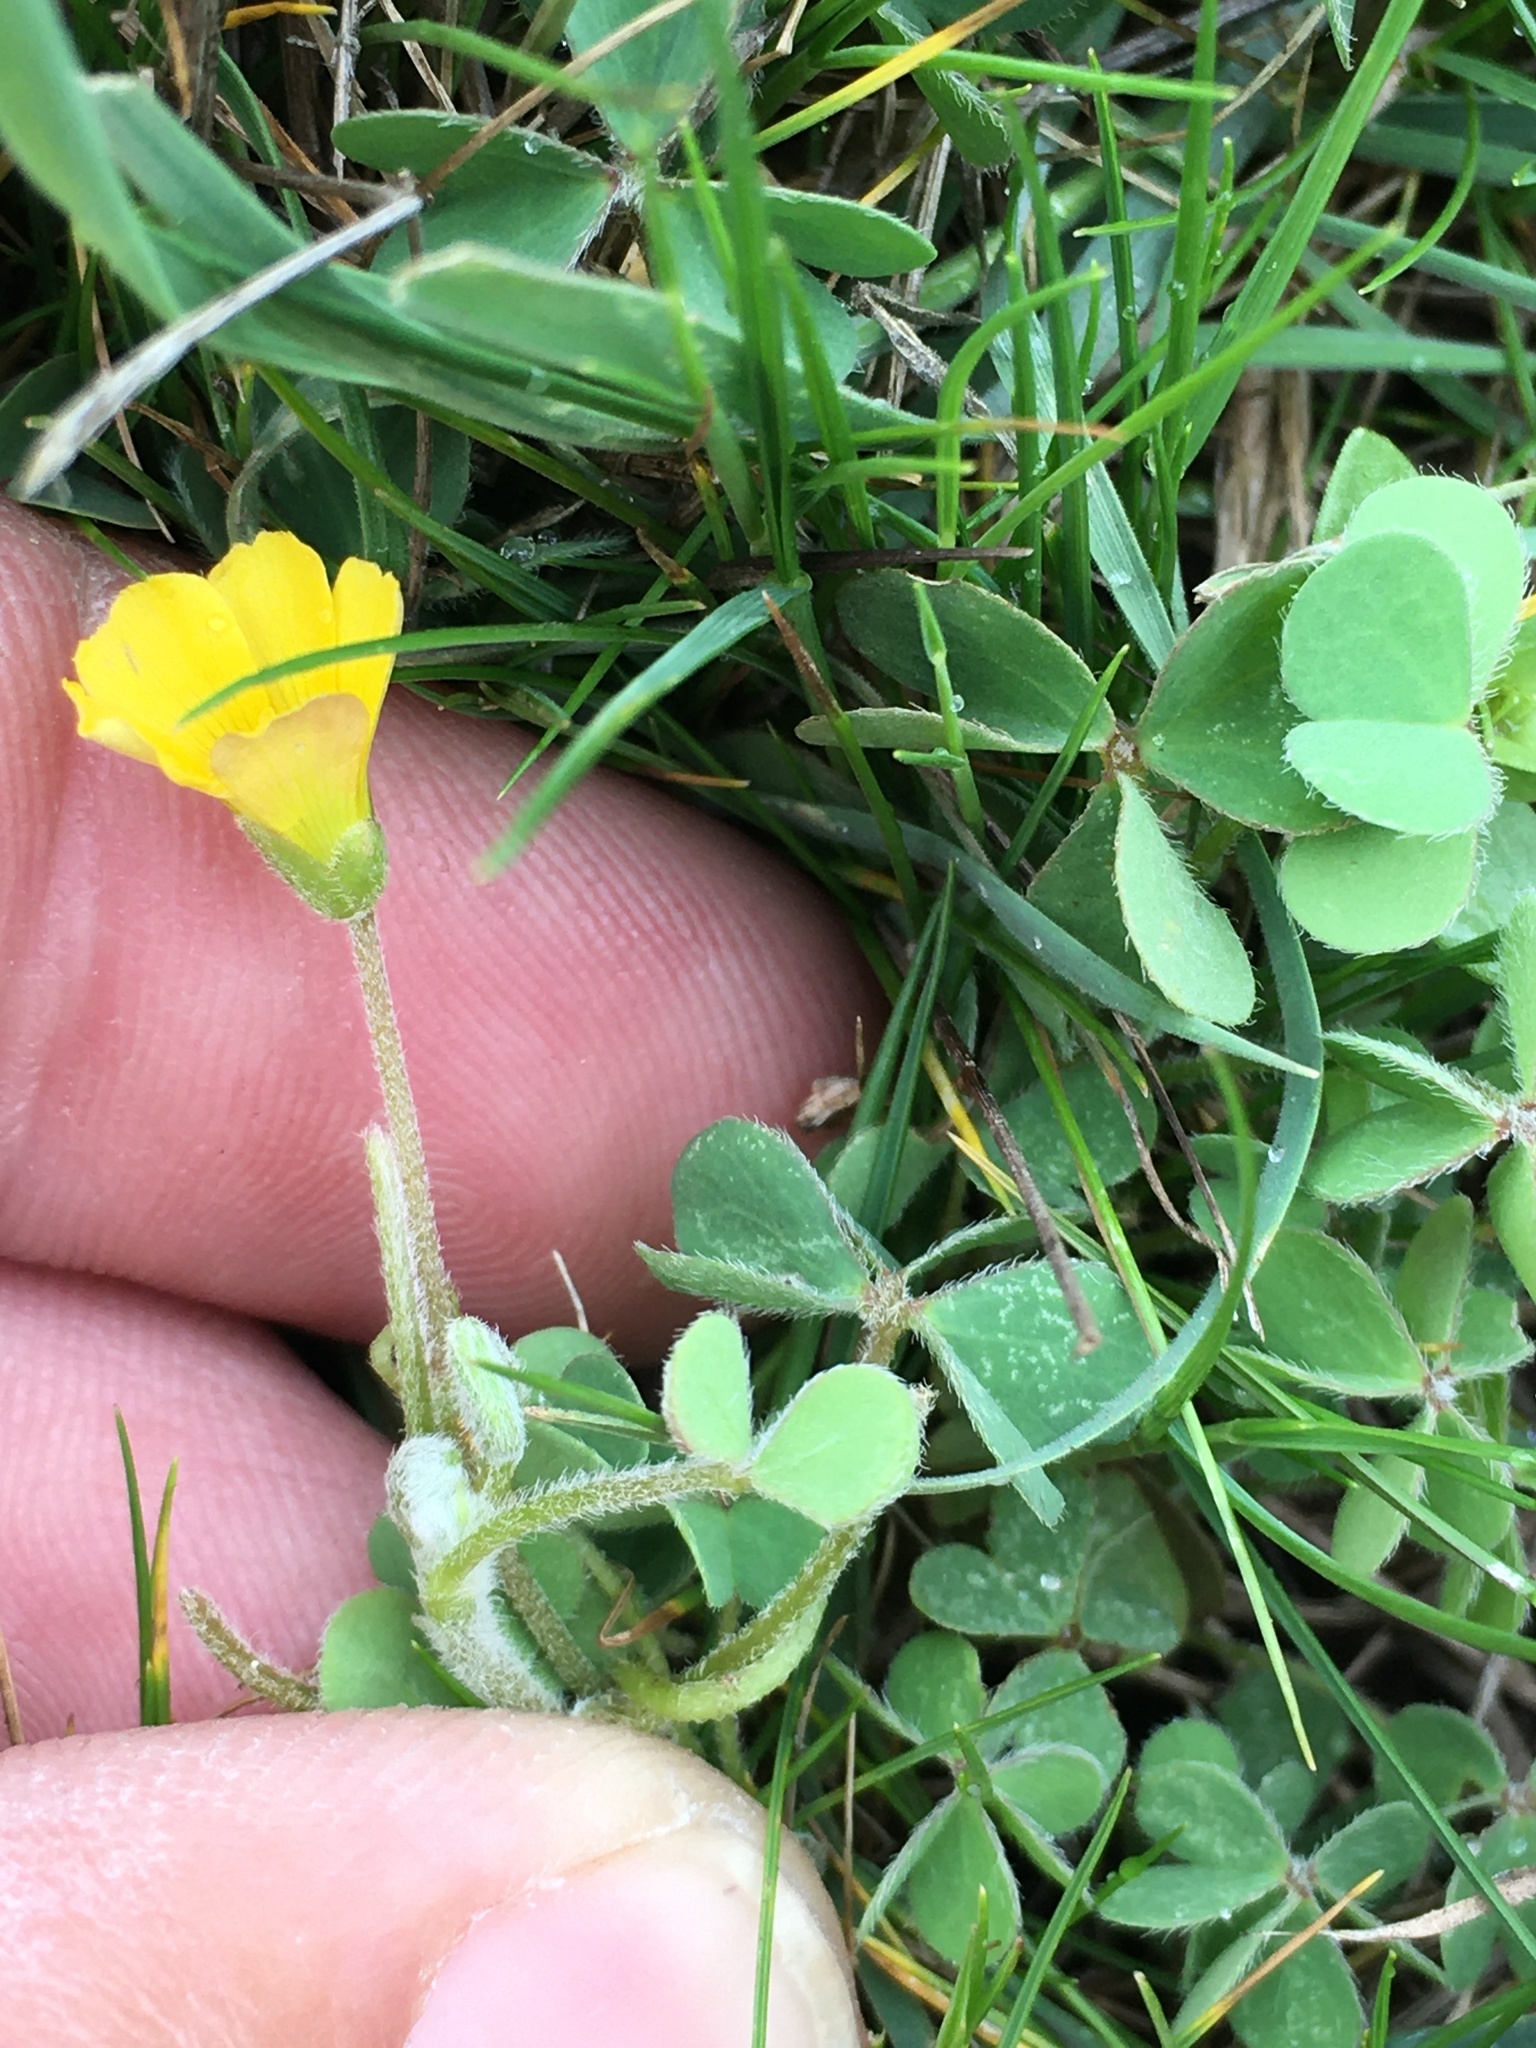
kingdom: Plantae
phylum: Tracheophyta
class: Magnoliopsida
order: Oxalidales
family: Oxalidaceae
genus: Oxalis
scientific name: Oxalis pilosa
